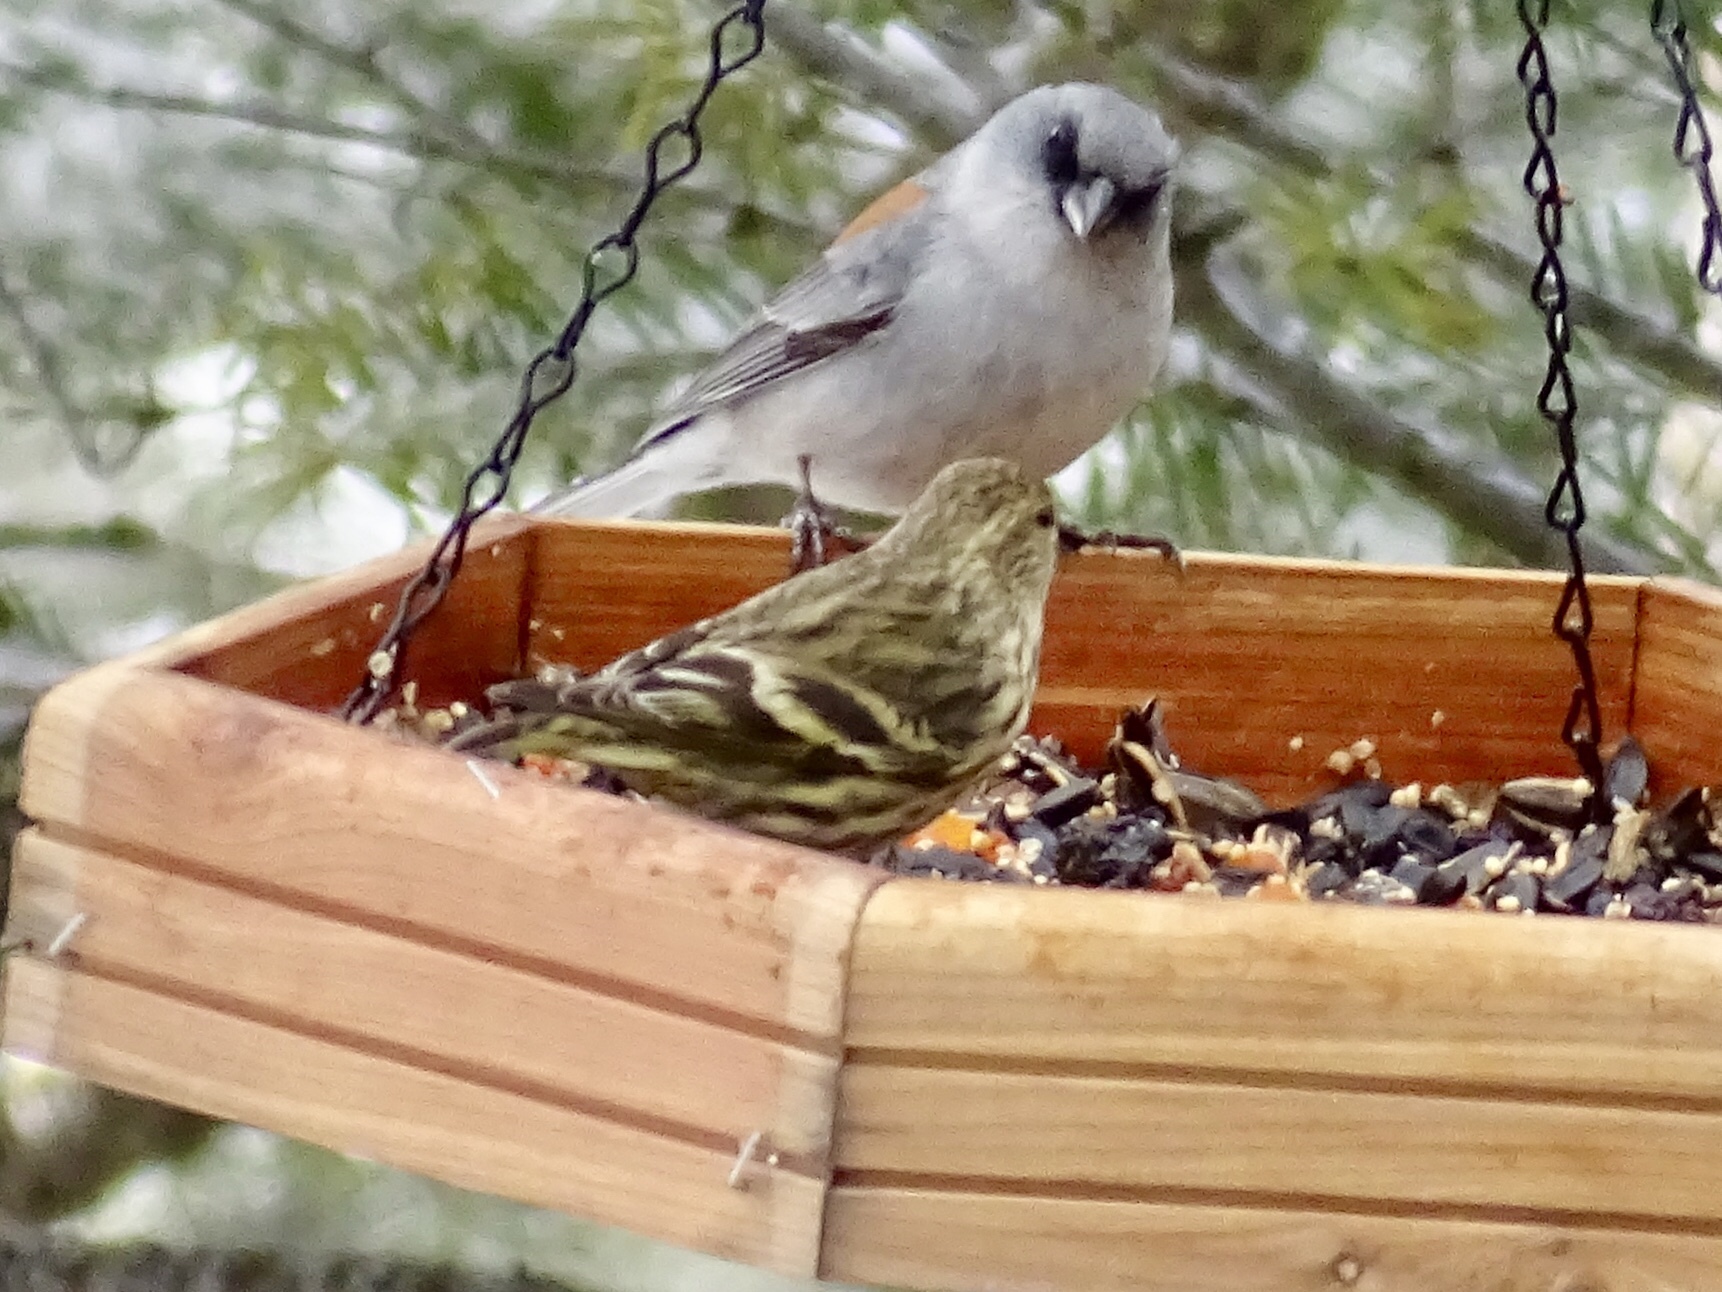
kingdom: Animalia
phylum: Chordata
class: Aves
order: Passeriformes
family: Fringillidae
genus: Spinus
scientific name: Spinus pinus
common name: Pine siskin
